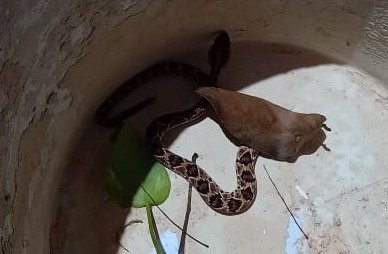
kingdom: Animalia
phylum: Chordata
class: Squamata
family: Viperidae
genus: Crotalus
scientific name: Crotalus tzabcan
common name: Yucatan neotropical rattlesnake
